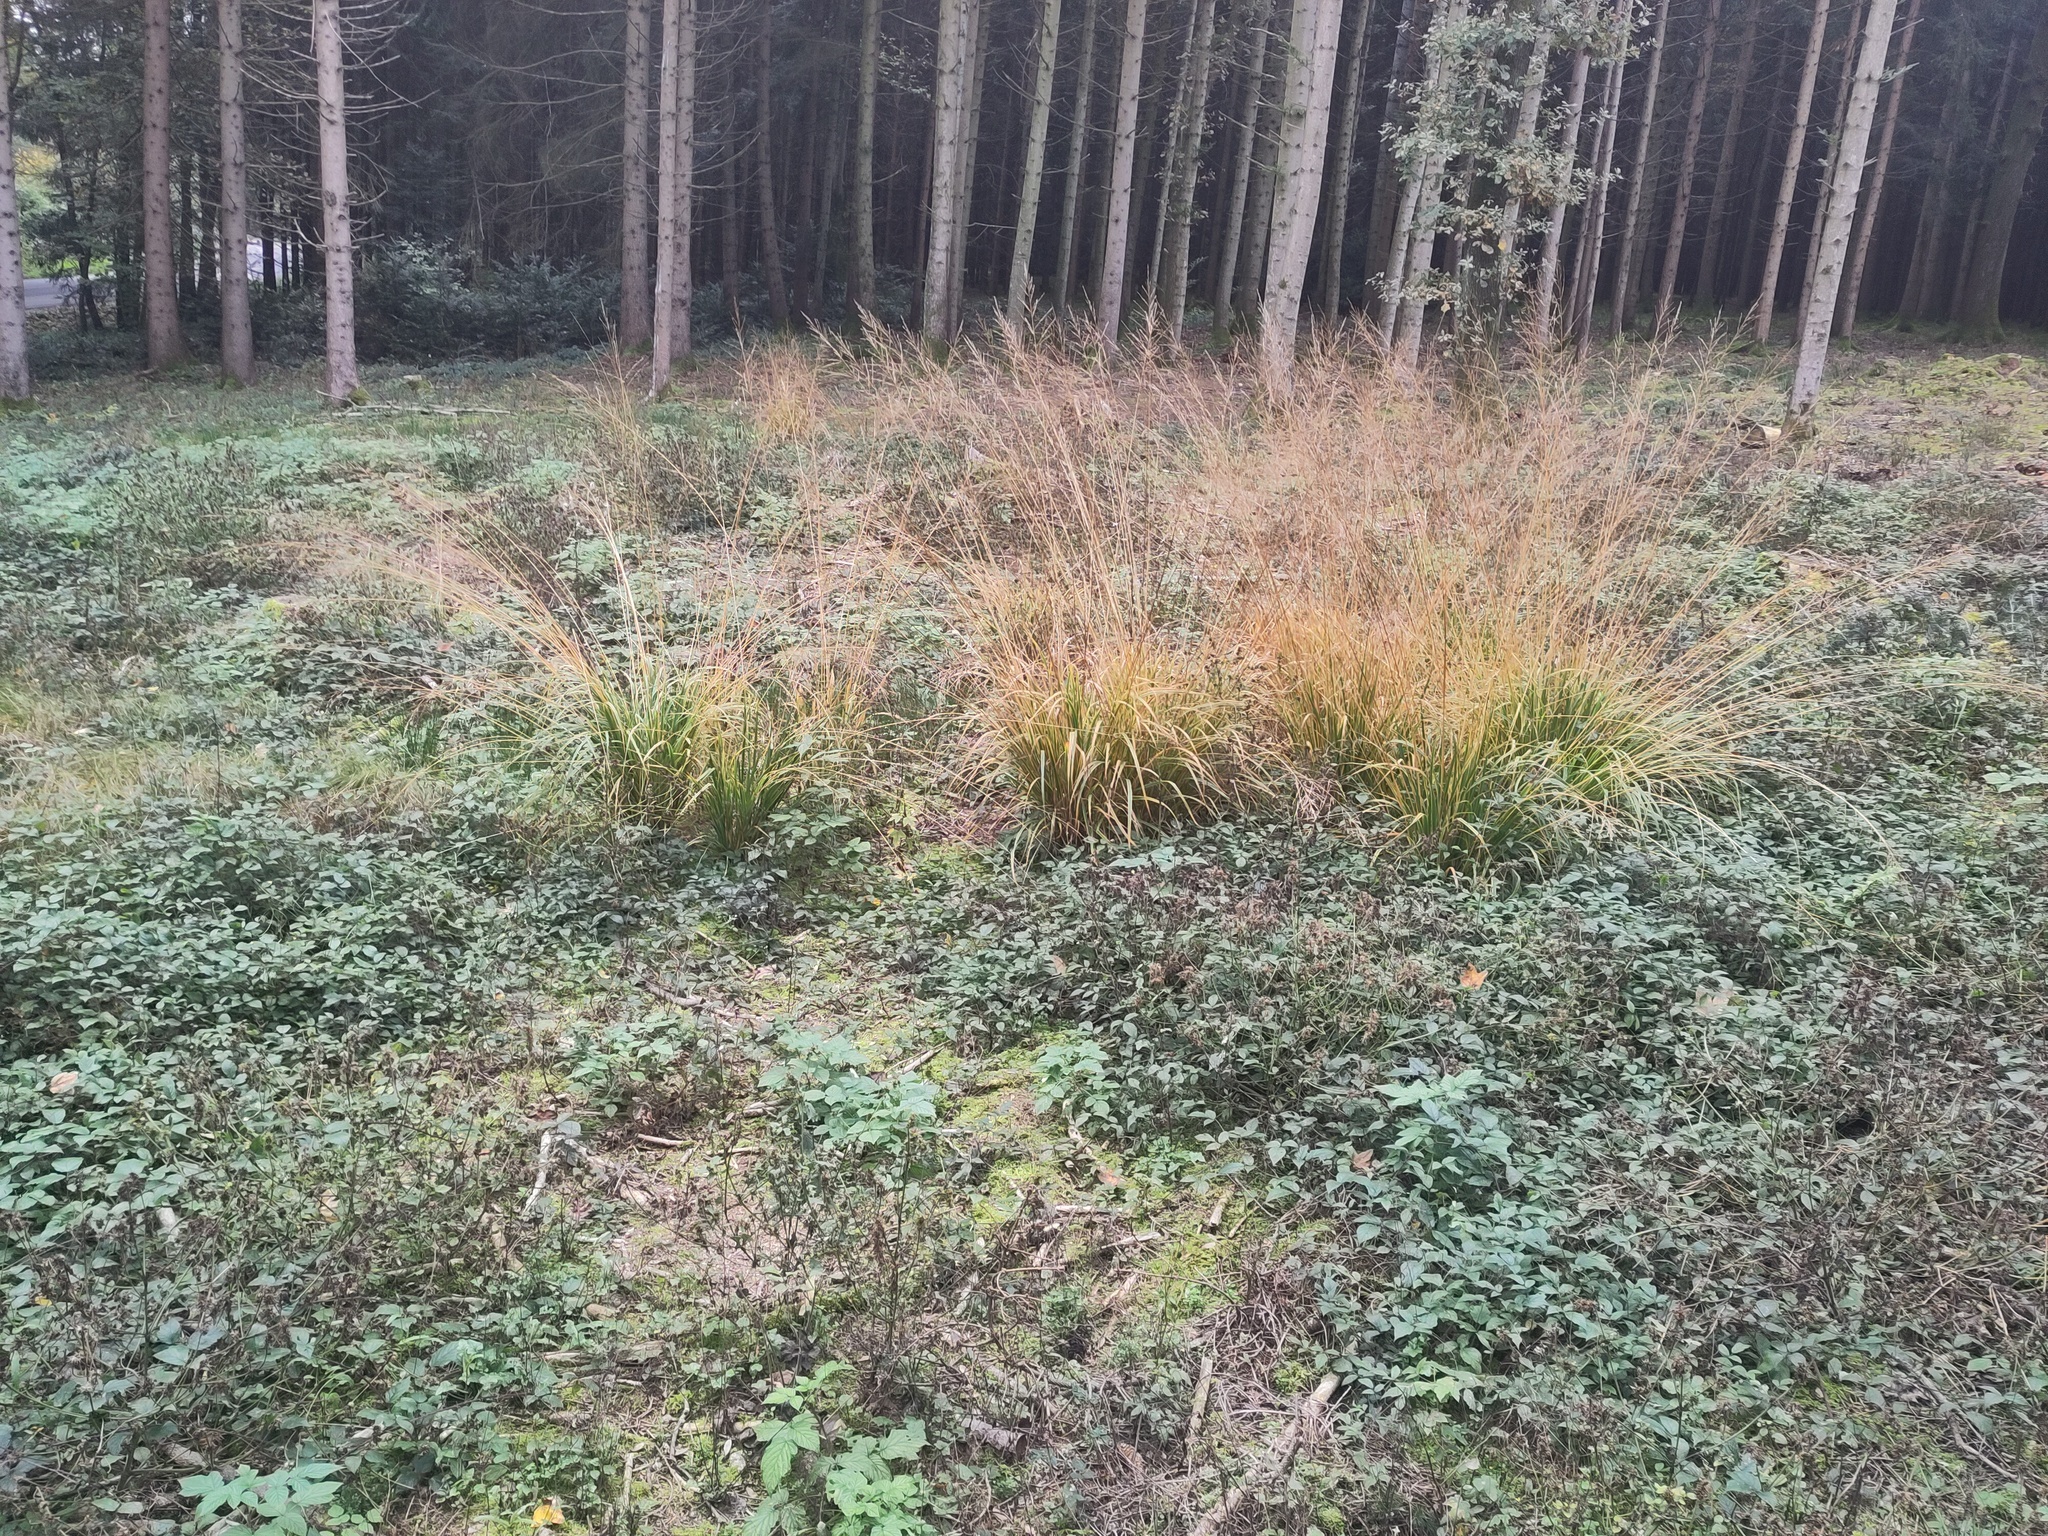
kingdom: Plantae
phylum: Tracheophyta
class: Liliopsida
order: Poales
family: Poaceae
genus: Molinia
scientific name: Molinia caerulea
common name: Purple moor-grass
